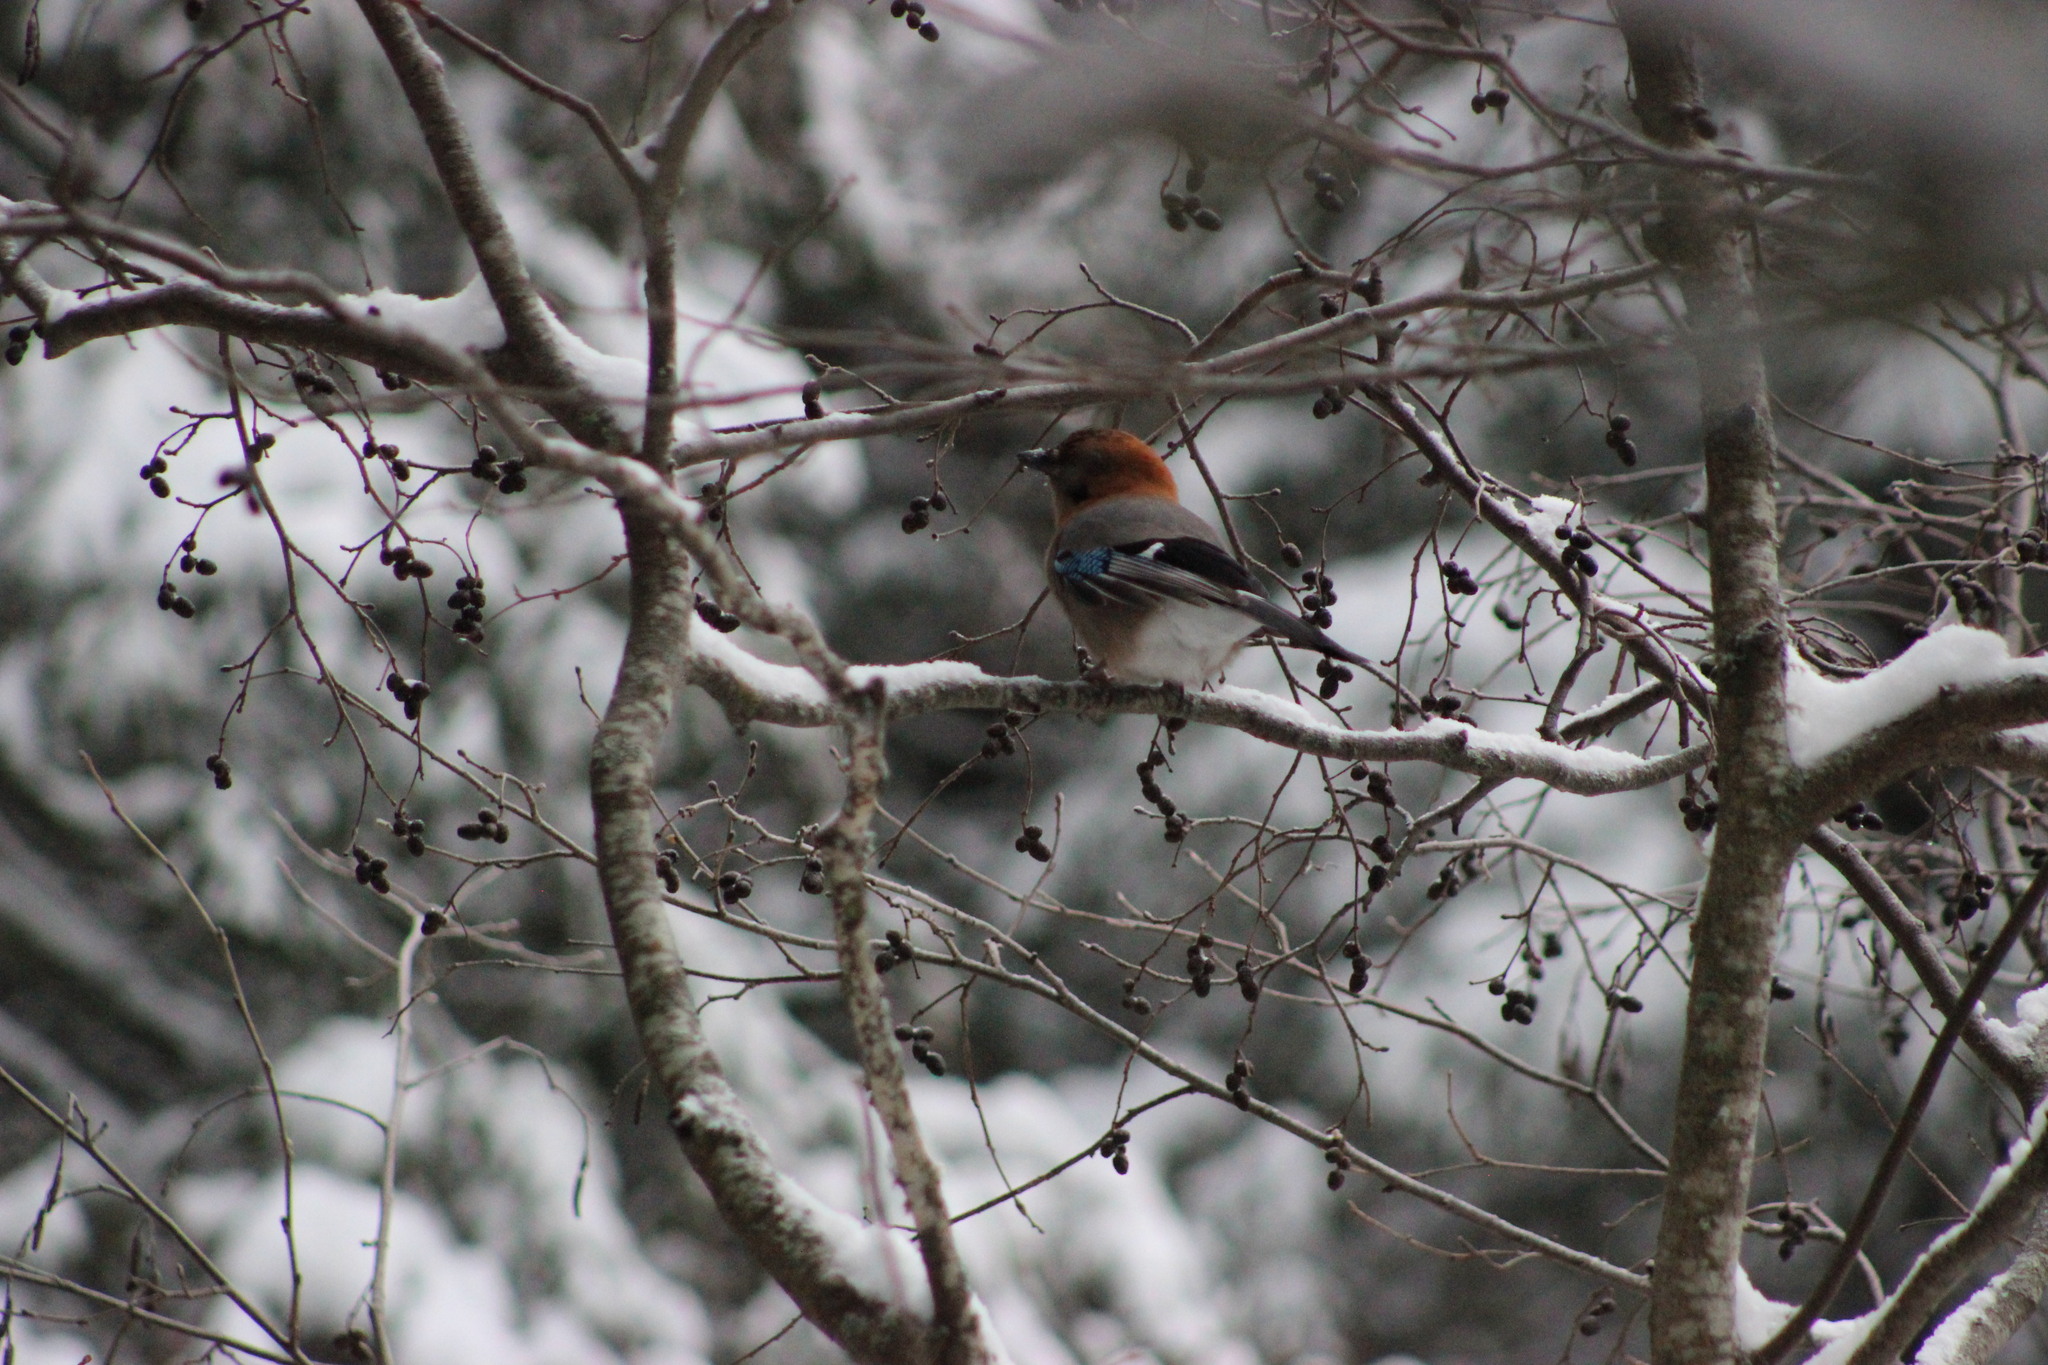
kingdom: Animalia
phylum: Chordata
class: Aves
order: Passeriformes
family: Corvidae
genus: Garrulus
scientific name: Garrulus glandarius
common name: Eurasian jay
